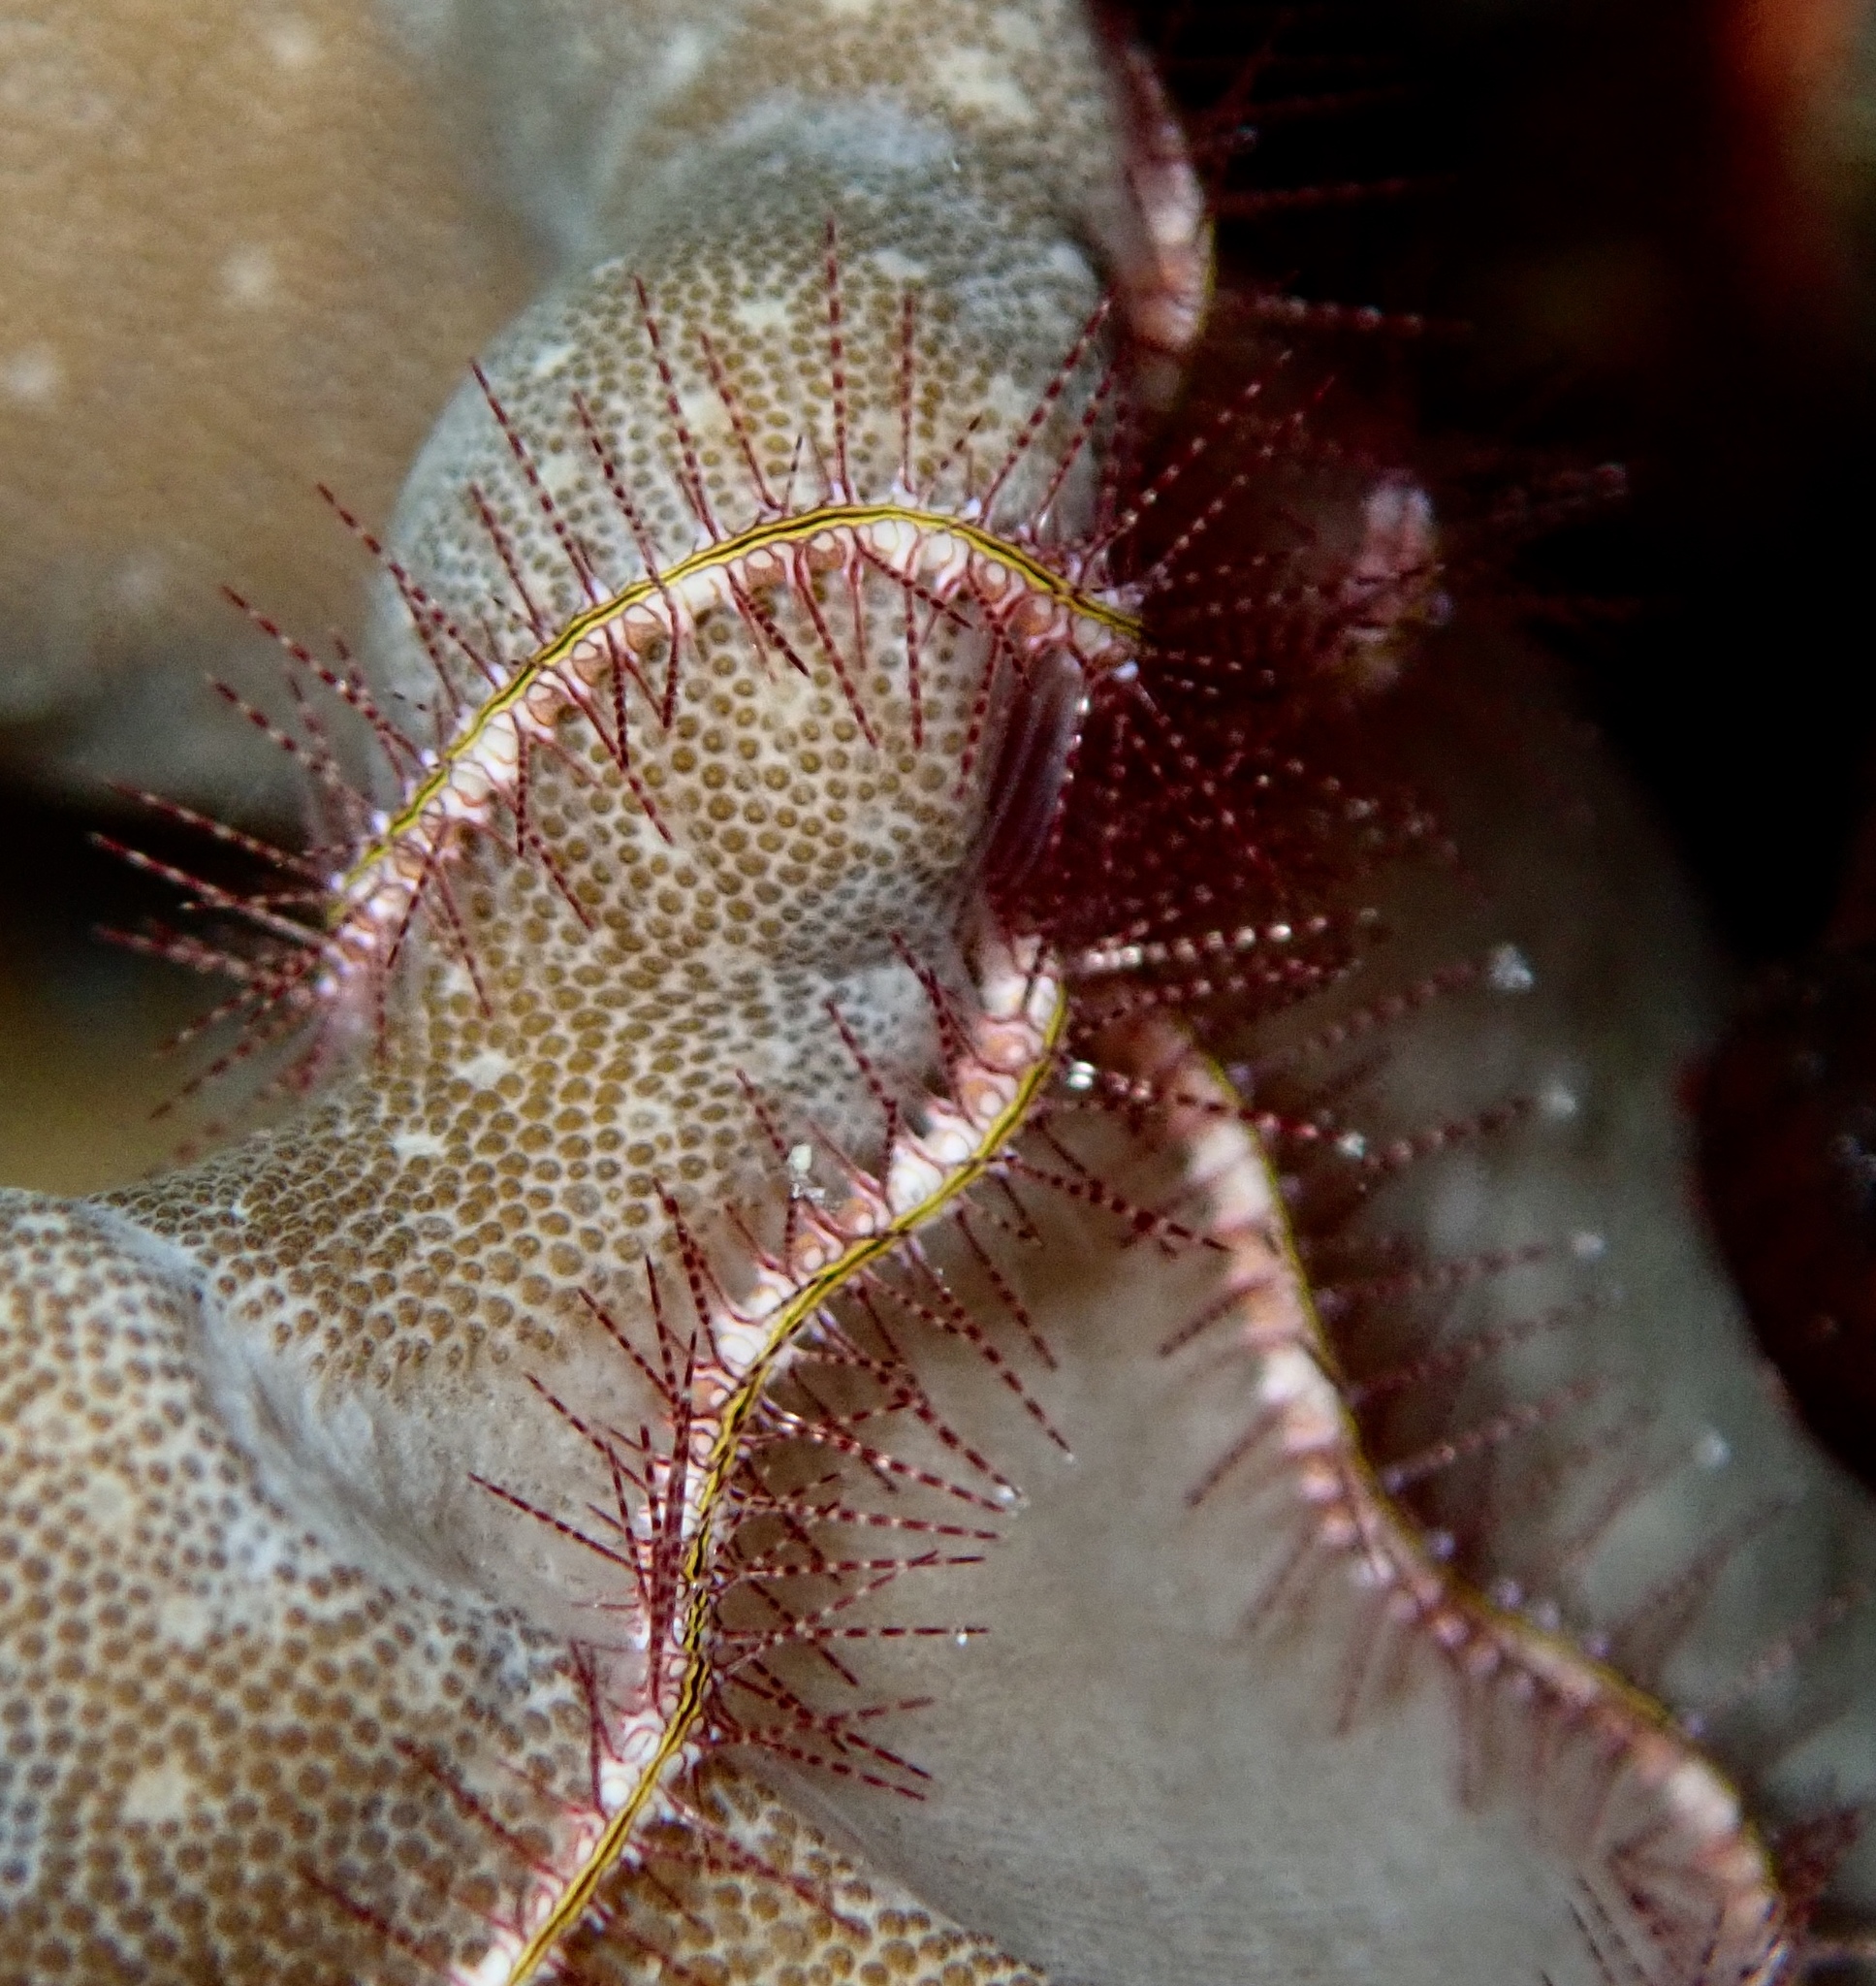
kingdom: Animalia
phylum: Echinodermata
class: Ophiuroidea
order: Amphilepidida
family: Ophiotrichidae
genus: Ophiothrix
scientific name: Ophiothrix purpurea
